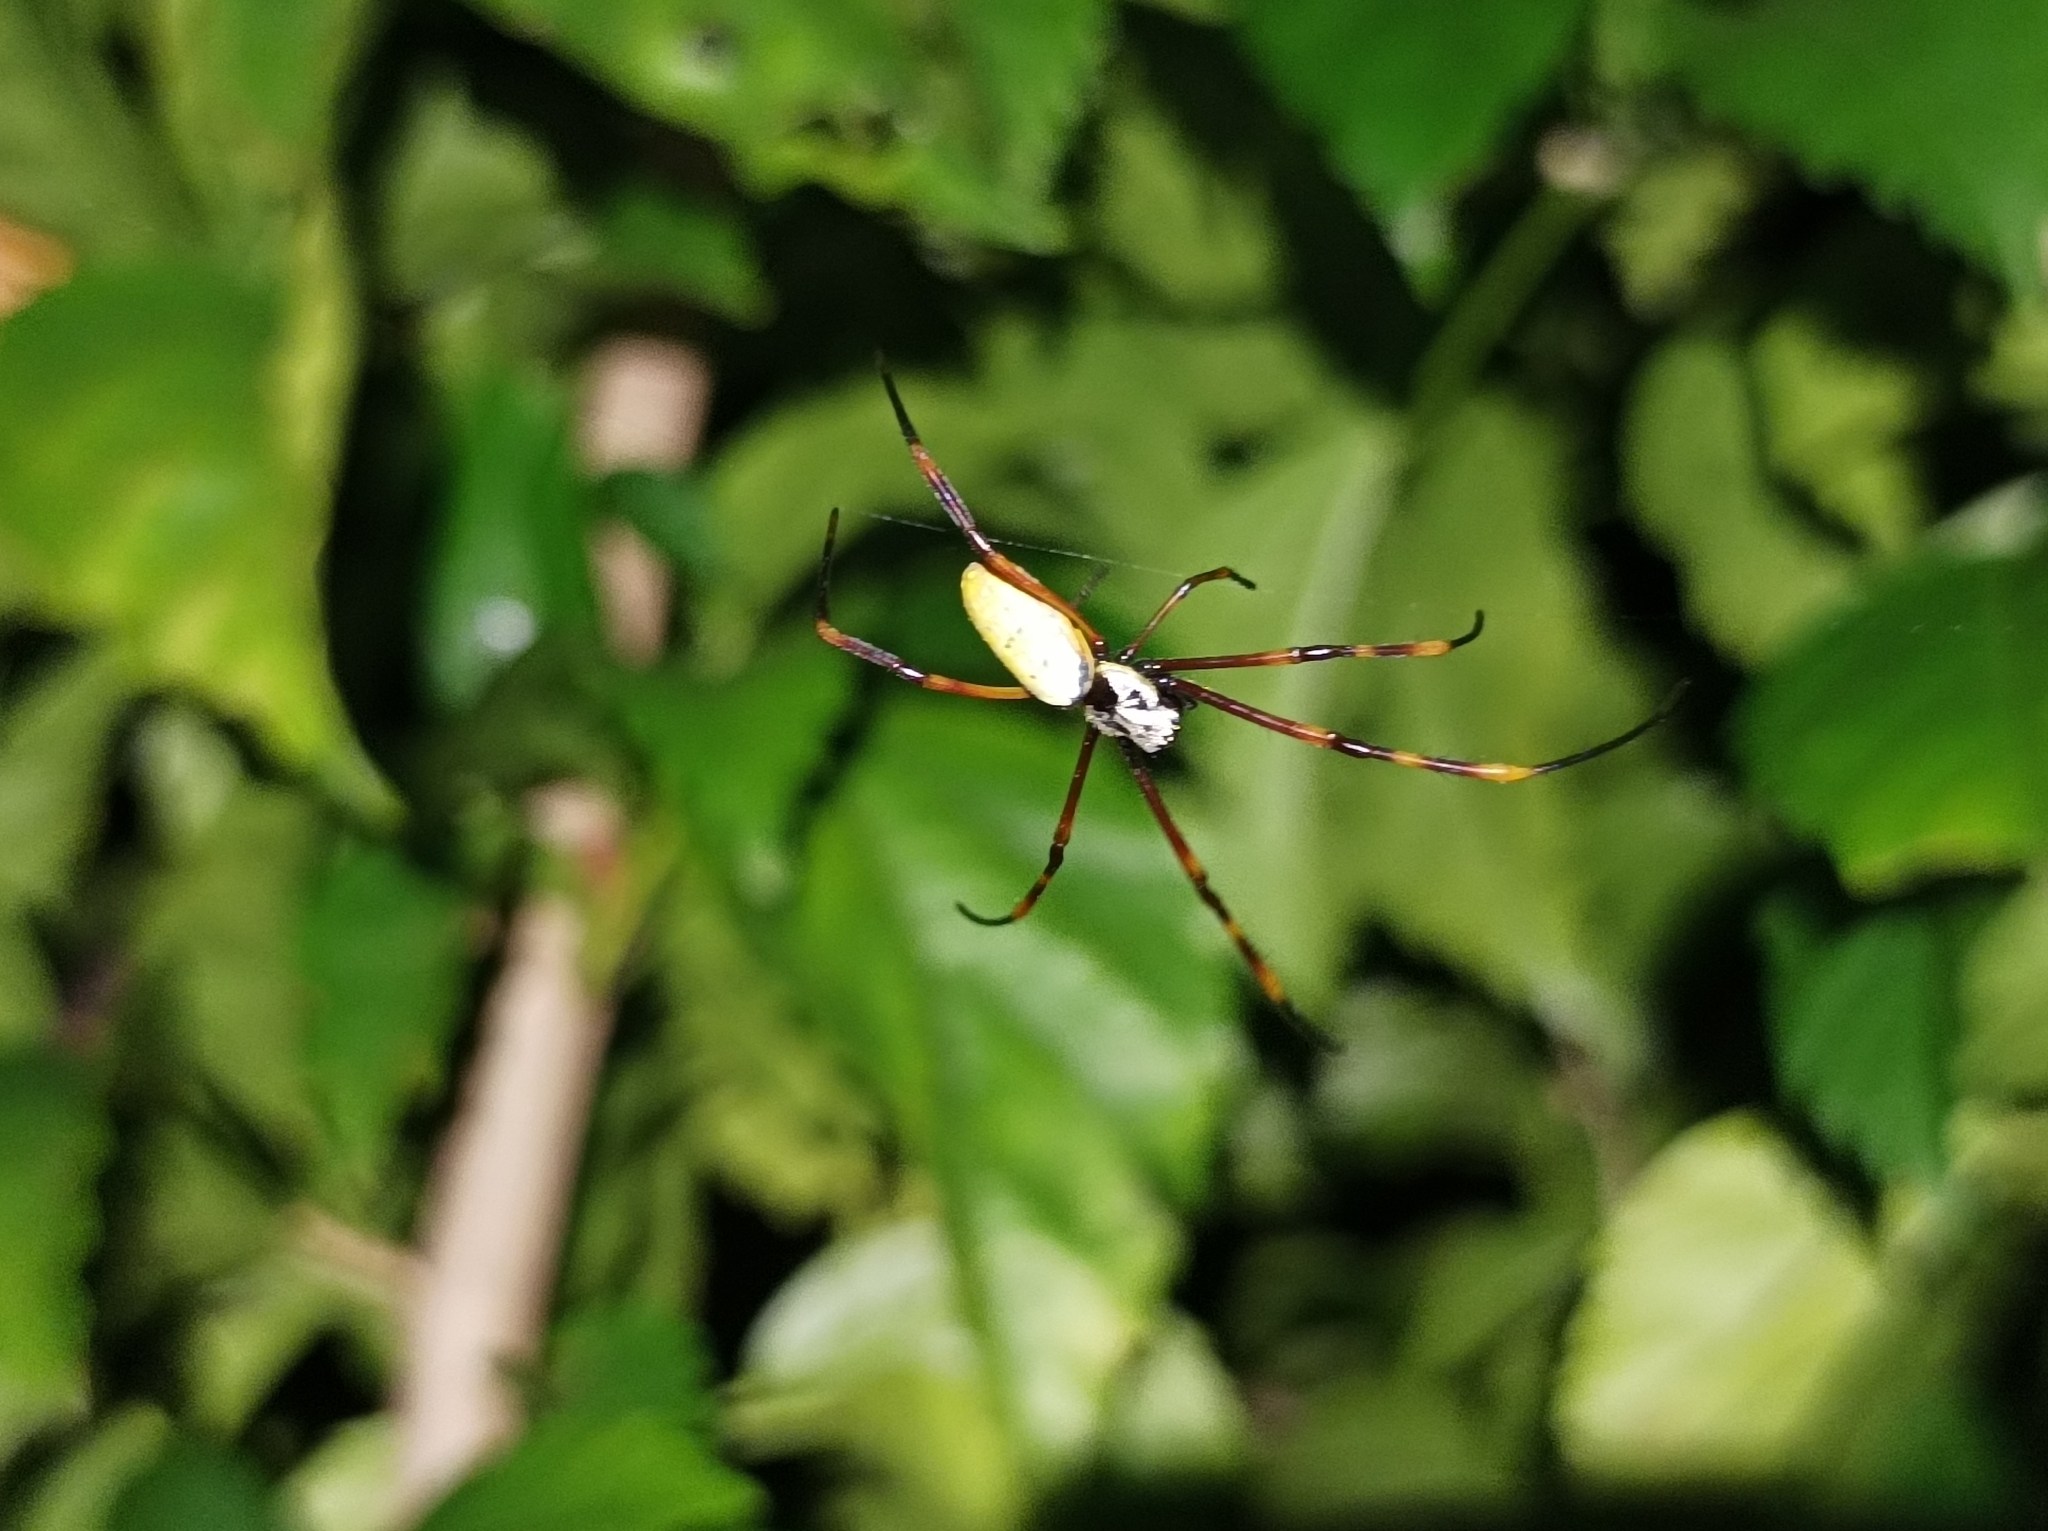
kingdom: Animalia
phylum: Arthropoda
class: Arachnida
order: Araneae
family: Araneidae
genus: Trichonephila
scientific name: Trichonephila plumipes
